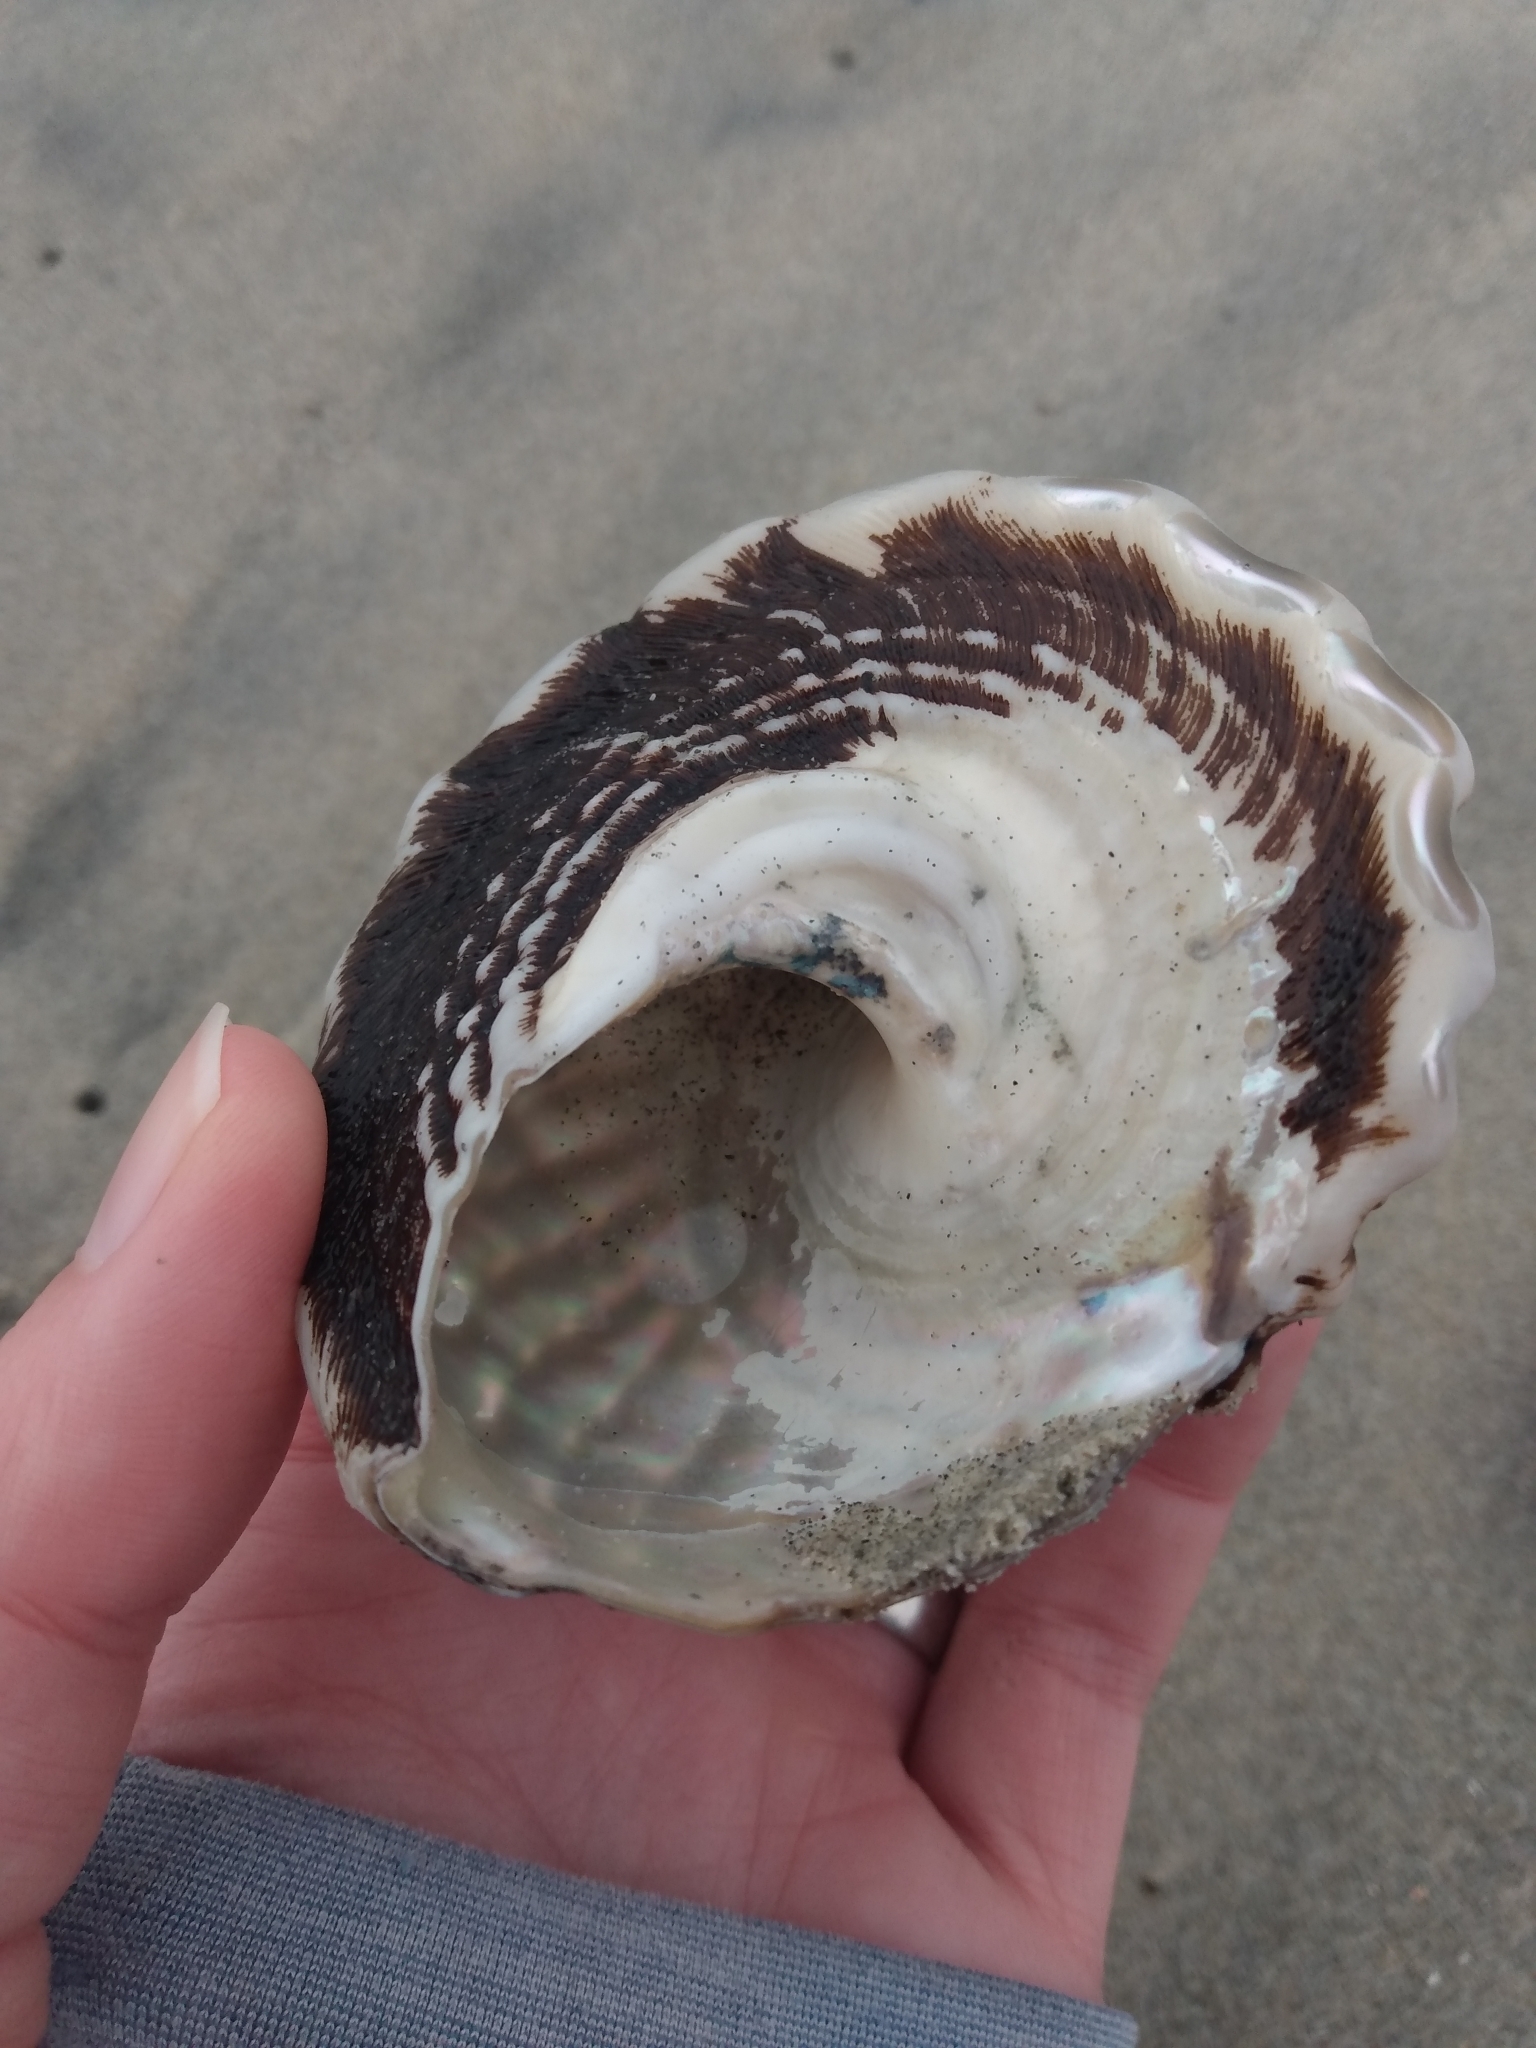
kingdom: Animalia
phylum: Mollusca
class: Gastropoda
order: Trochida
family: Turbinidae
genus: Megastraea
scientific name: Megastraea undosa
